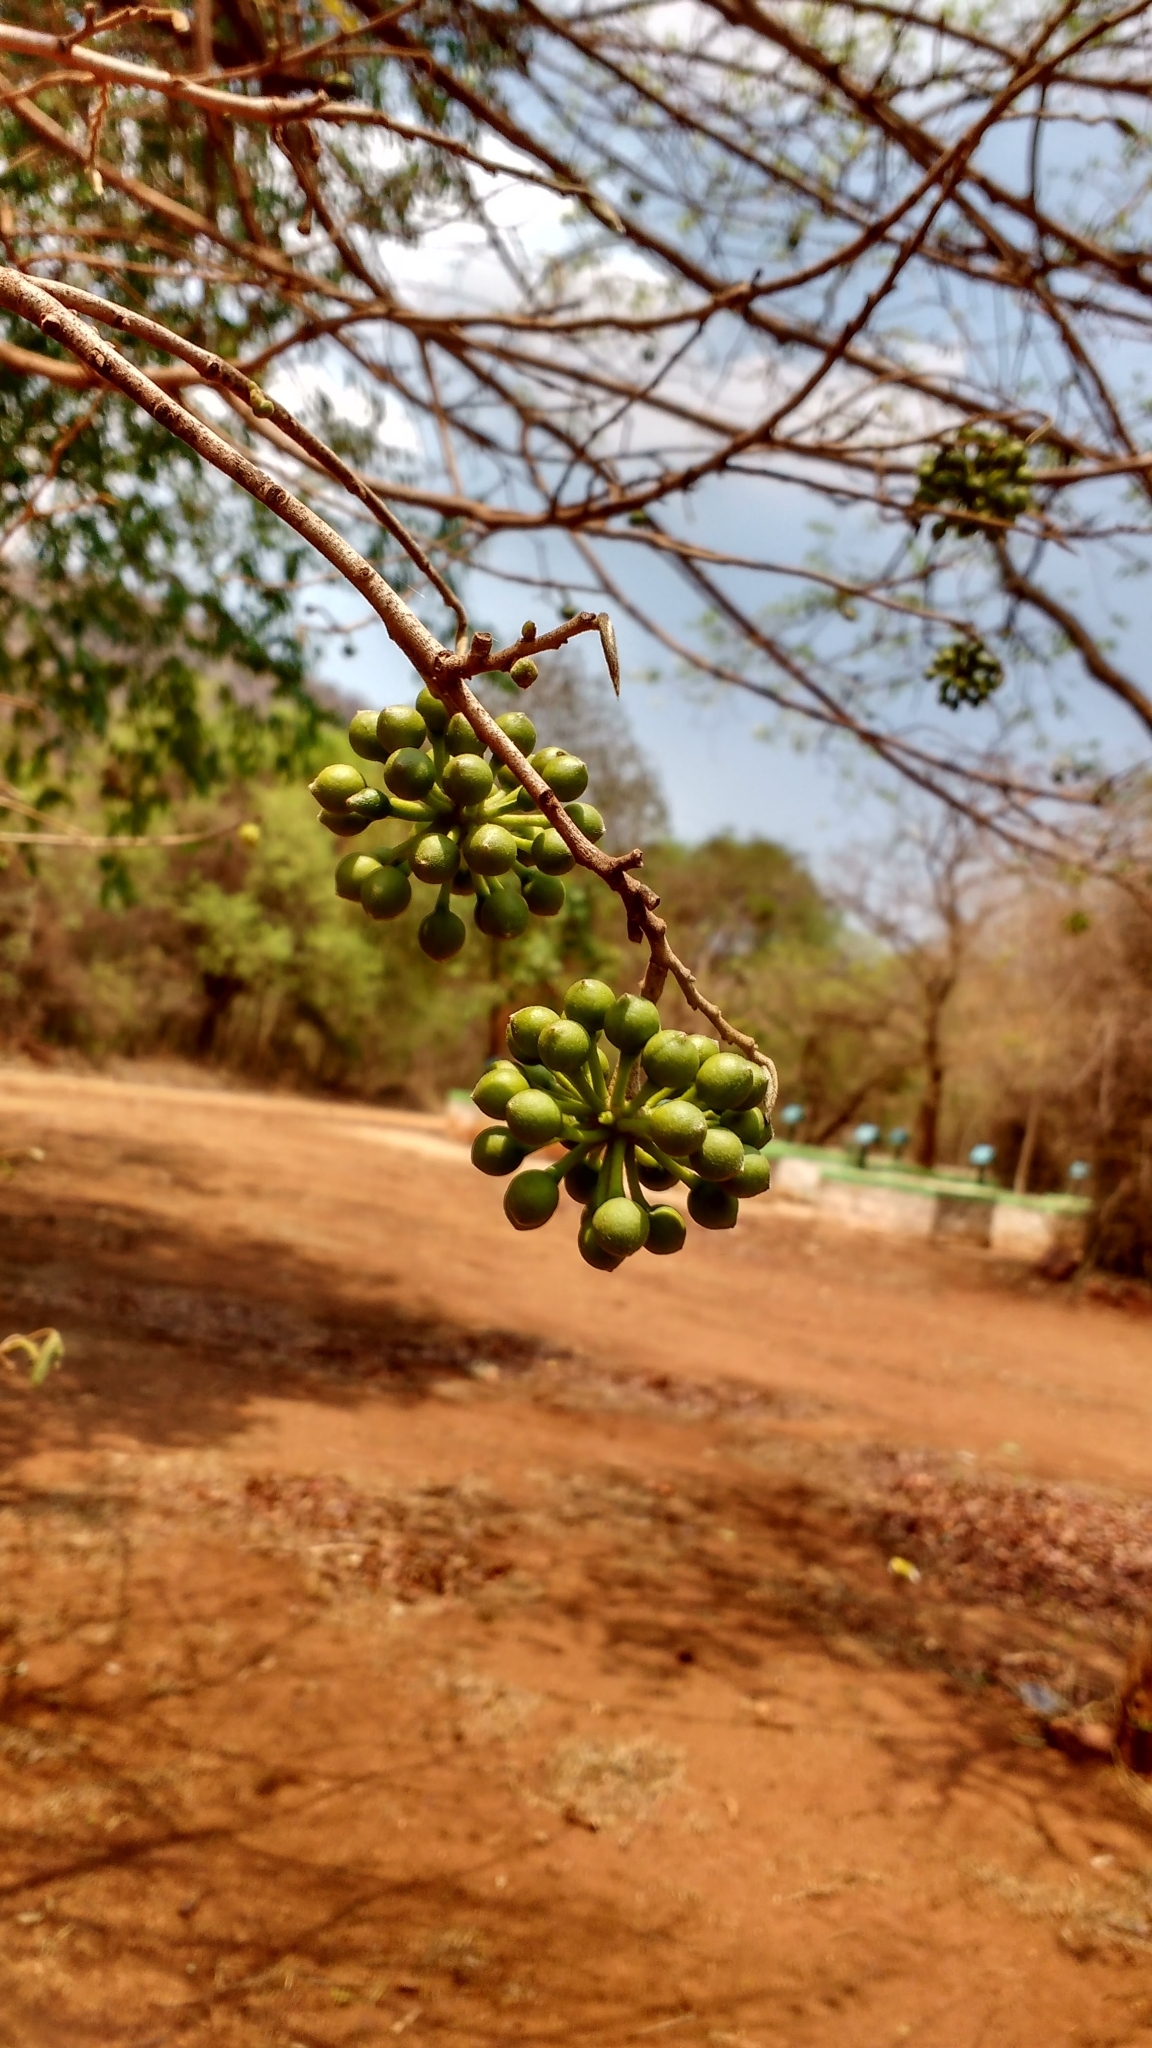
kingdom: Plantae
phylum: Tracheophyta
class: Magnoliopsida
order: Magnoliales
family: Annonaceae
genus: Hubera
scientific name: Hubera cerasoides
